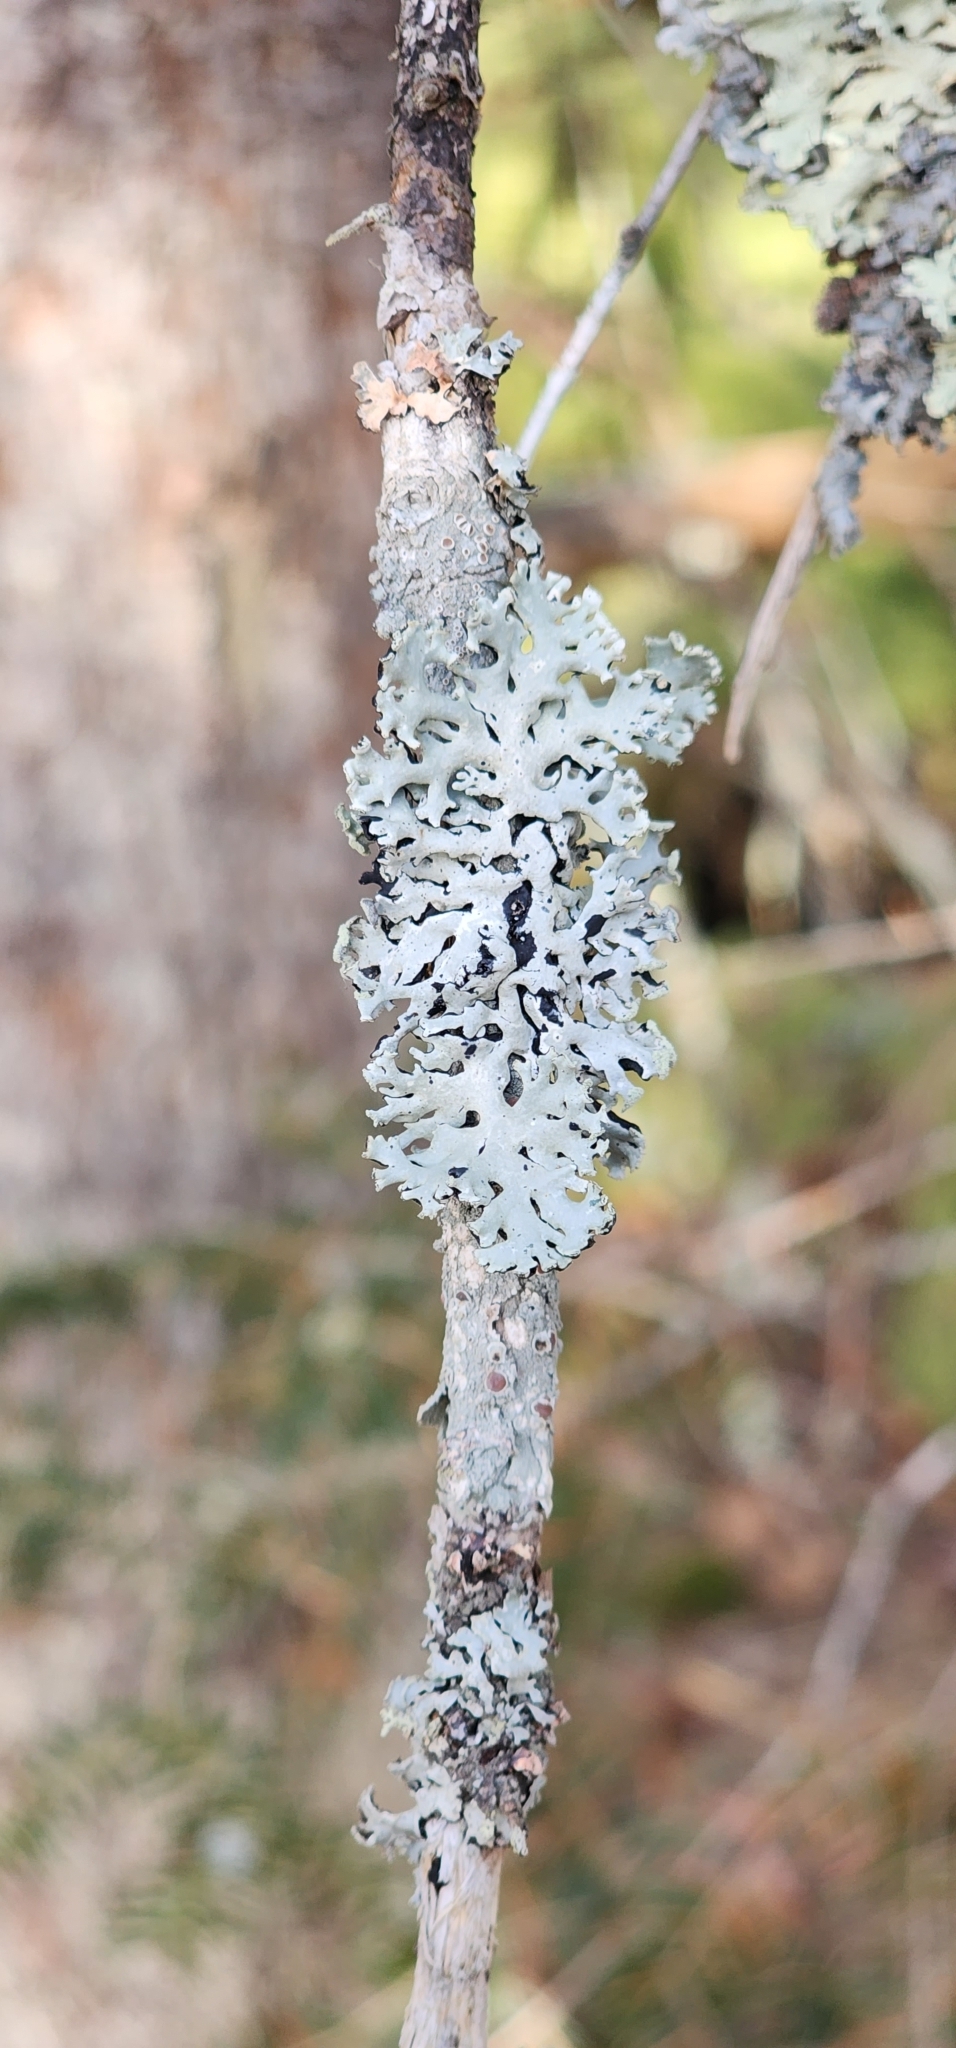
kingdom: Fungi
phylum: Ascomycota
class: Lecanoromycetes
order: Lecanorales
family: Parmeliaceae
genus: Hypogymnia
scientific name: Hypogymnia physodes
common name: Dark crottle
